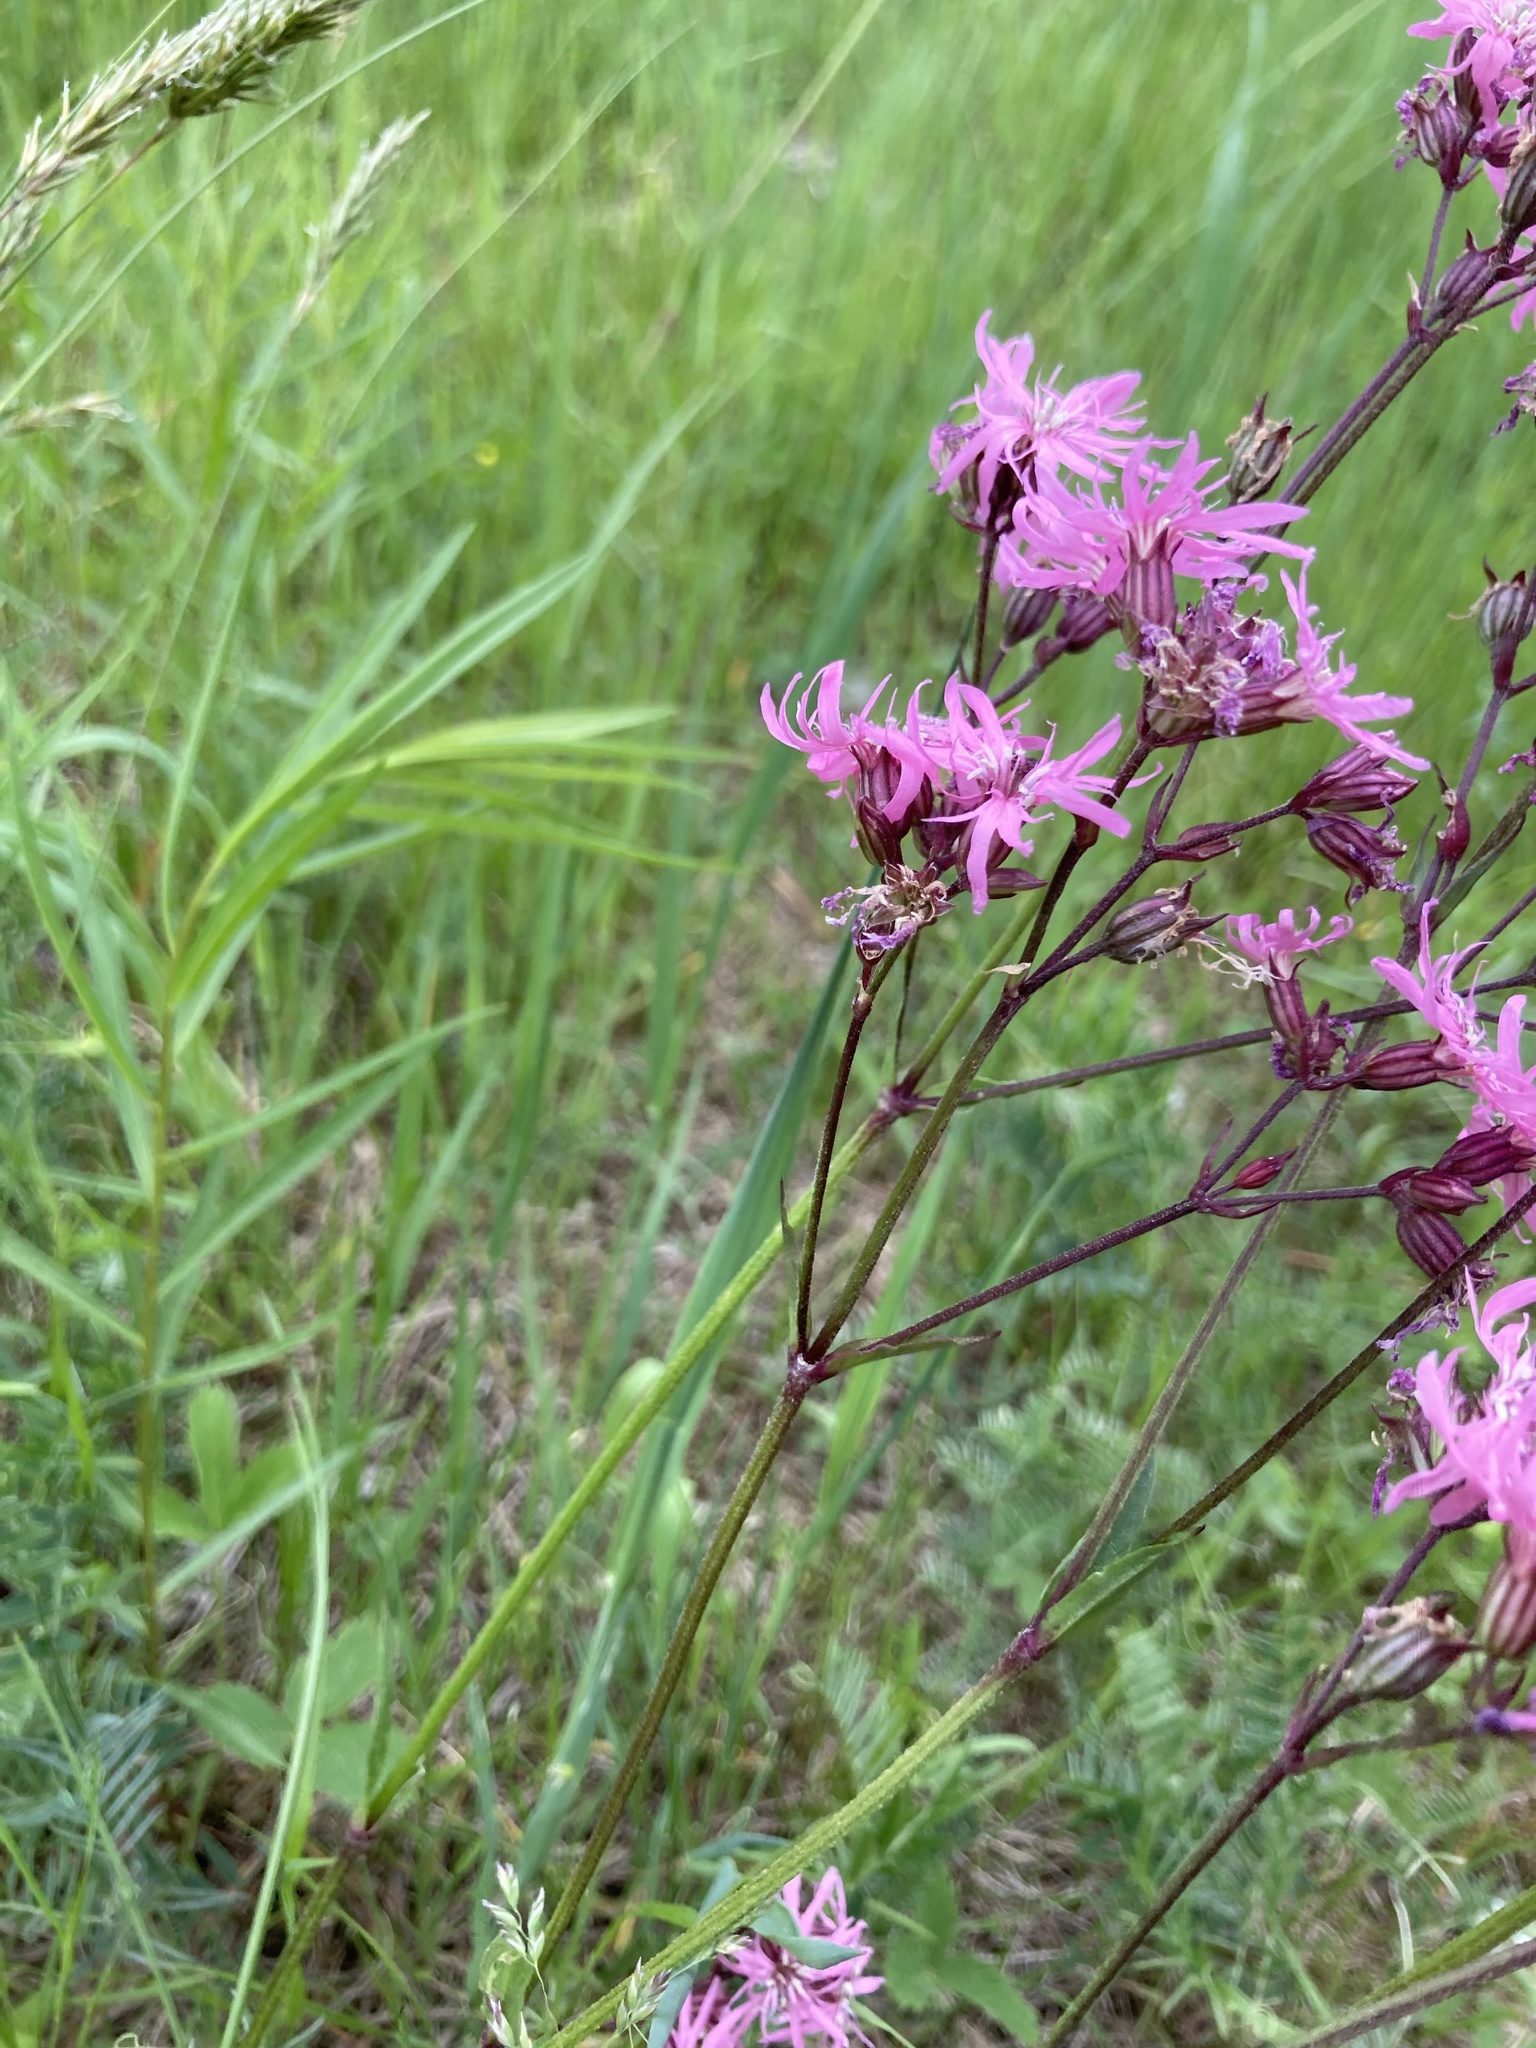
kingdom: Plantae
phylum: Tracheophyta
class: Magnoliopsida
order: Caryophyllales
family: Caryophyllaceae
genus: Silene
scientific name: Silene flos-cuculi
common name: Ragged-robin
